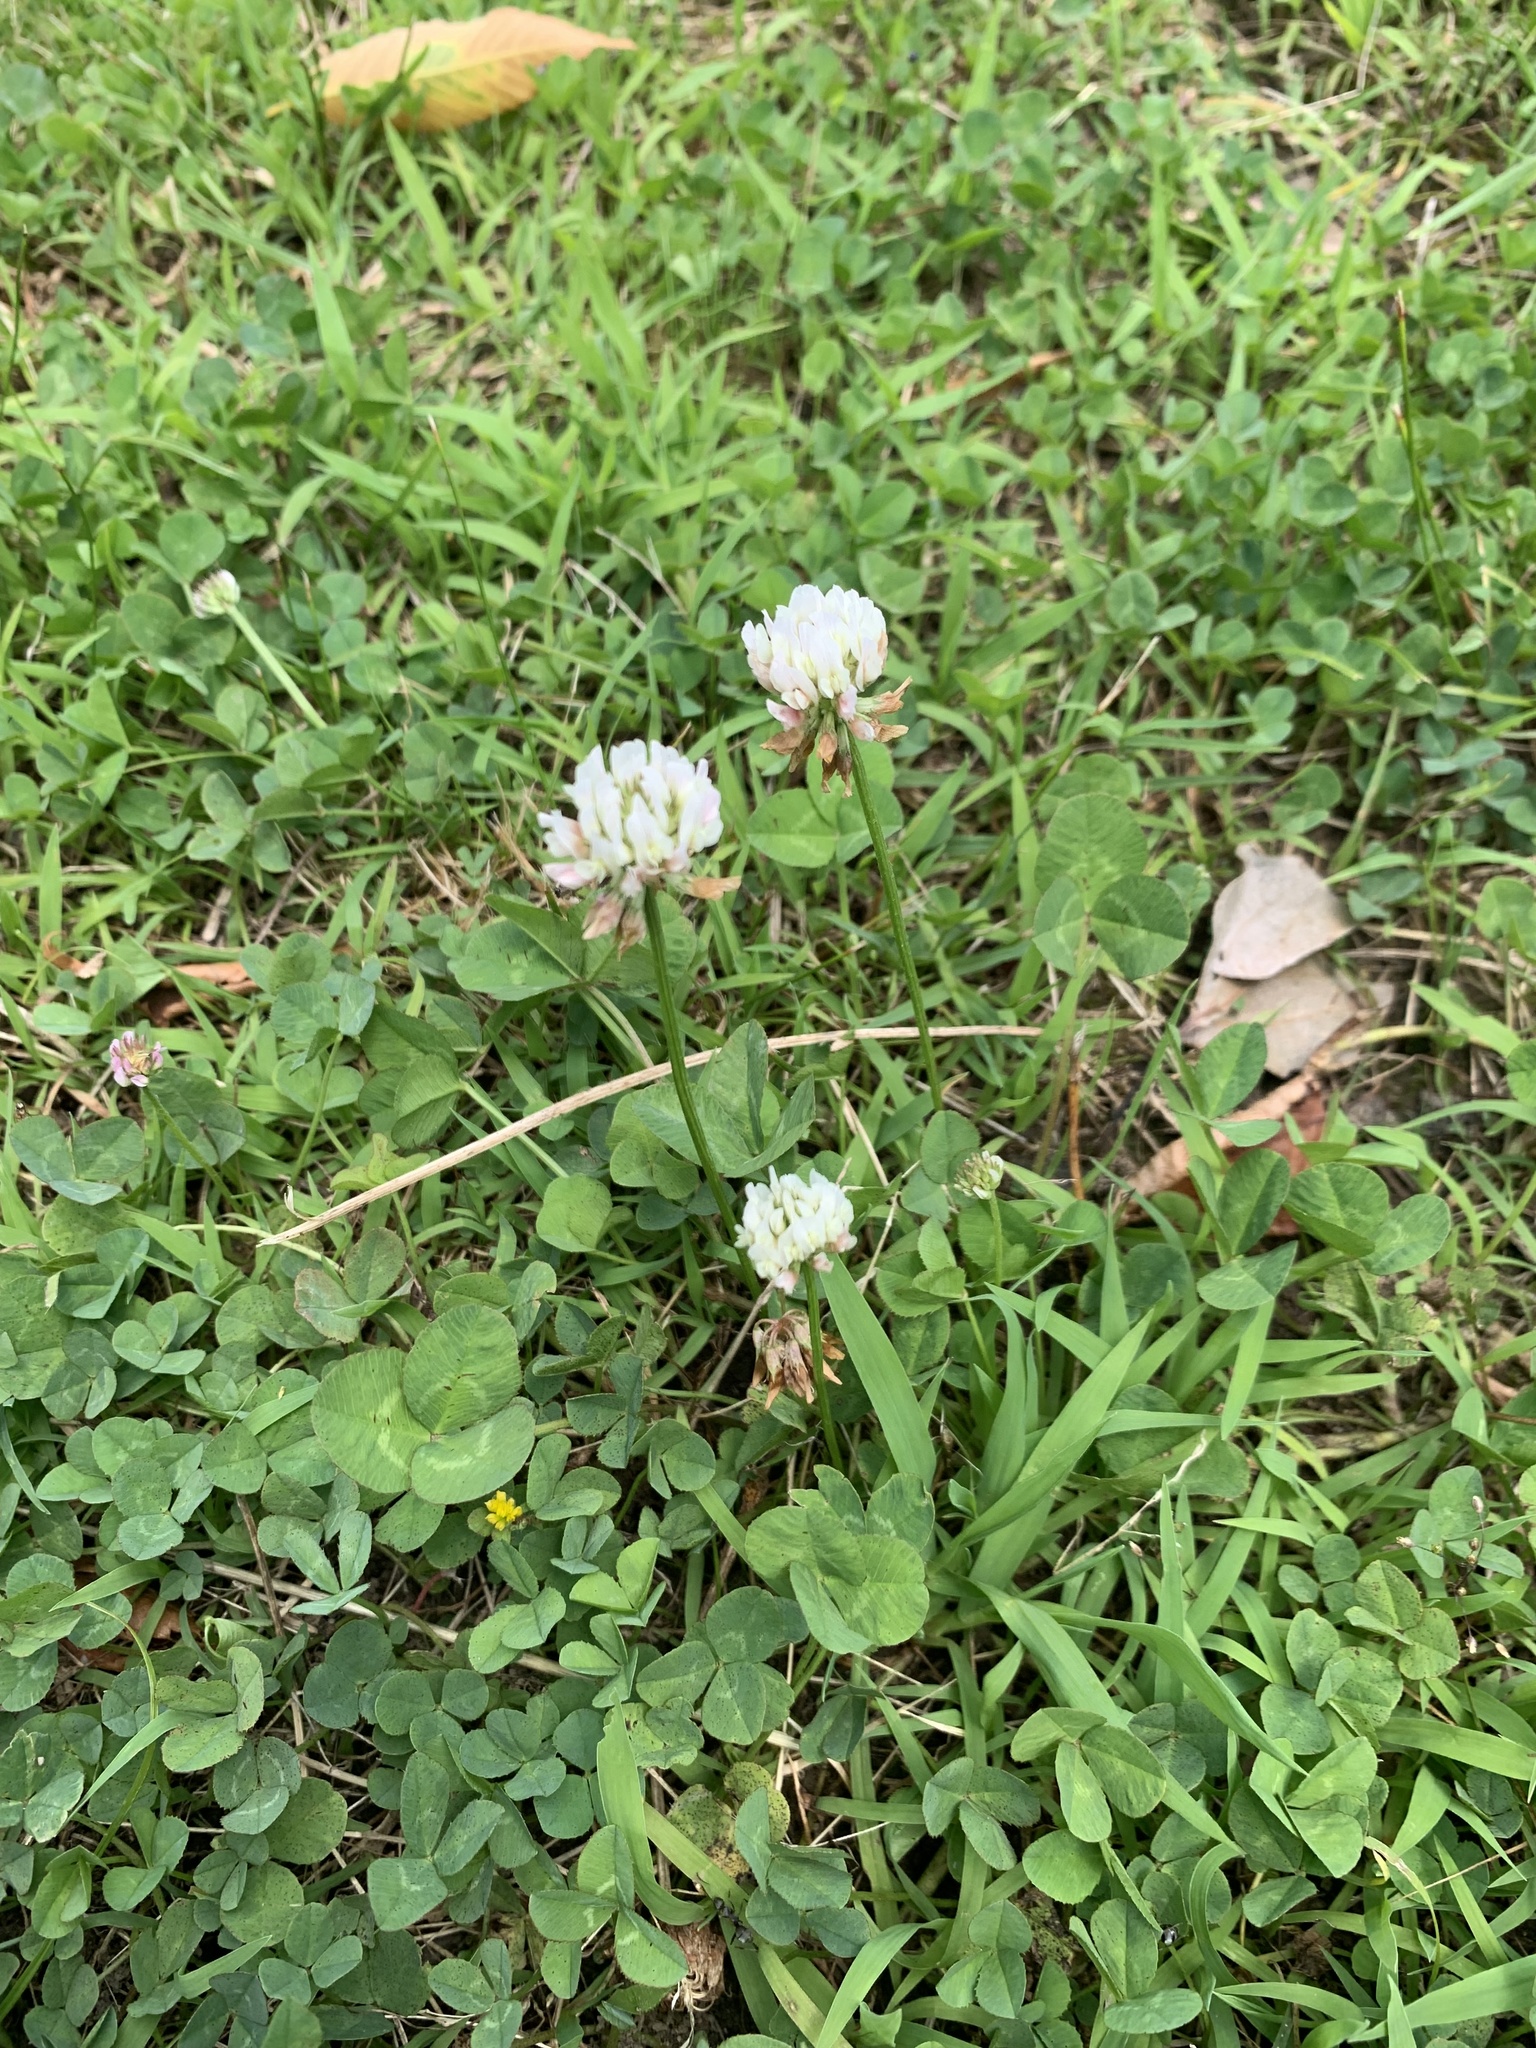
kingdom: Plantae
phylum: Tracheophyta
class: Magnoliopsida
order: Fabales
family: Fabaceae
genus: Trifolium
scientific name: Trifolium repens
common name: White clover
